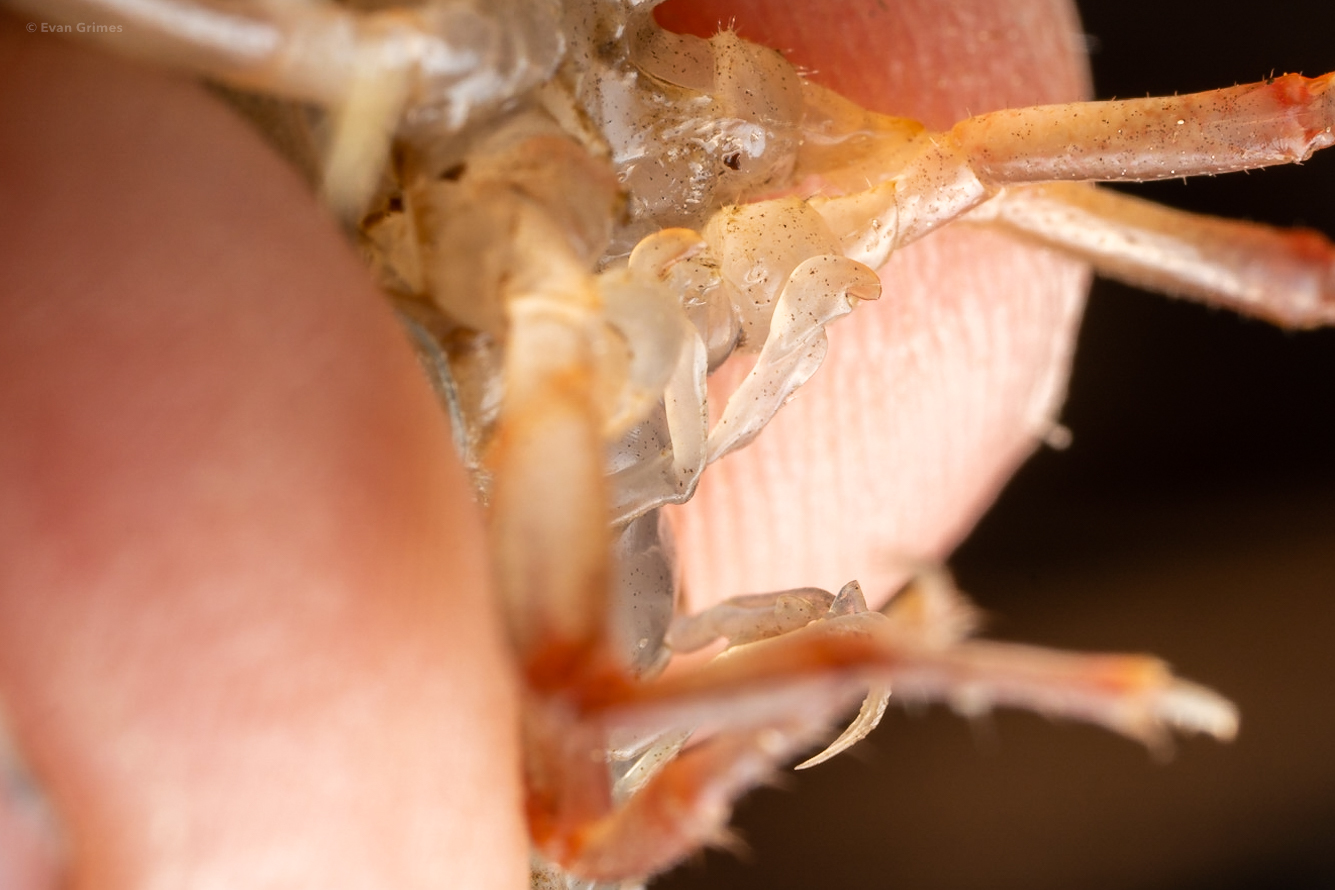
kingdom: Animalia
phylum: Arthropoda
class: Malacostraca
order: Decapoda
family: Cambaridae
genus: Lacunicambarus
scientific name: Lacunicambarus ludovicianus
